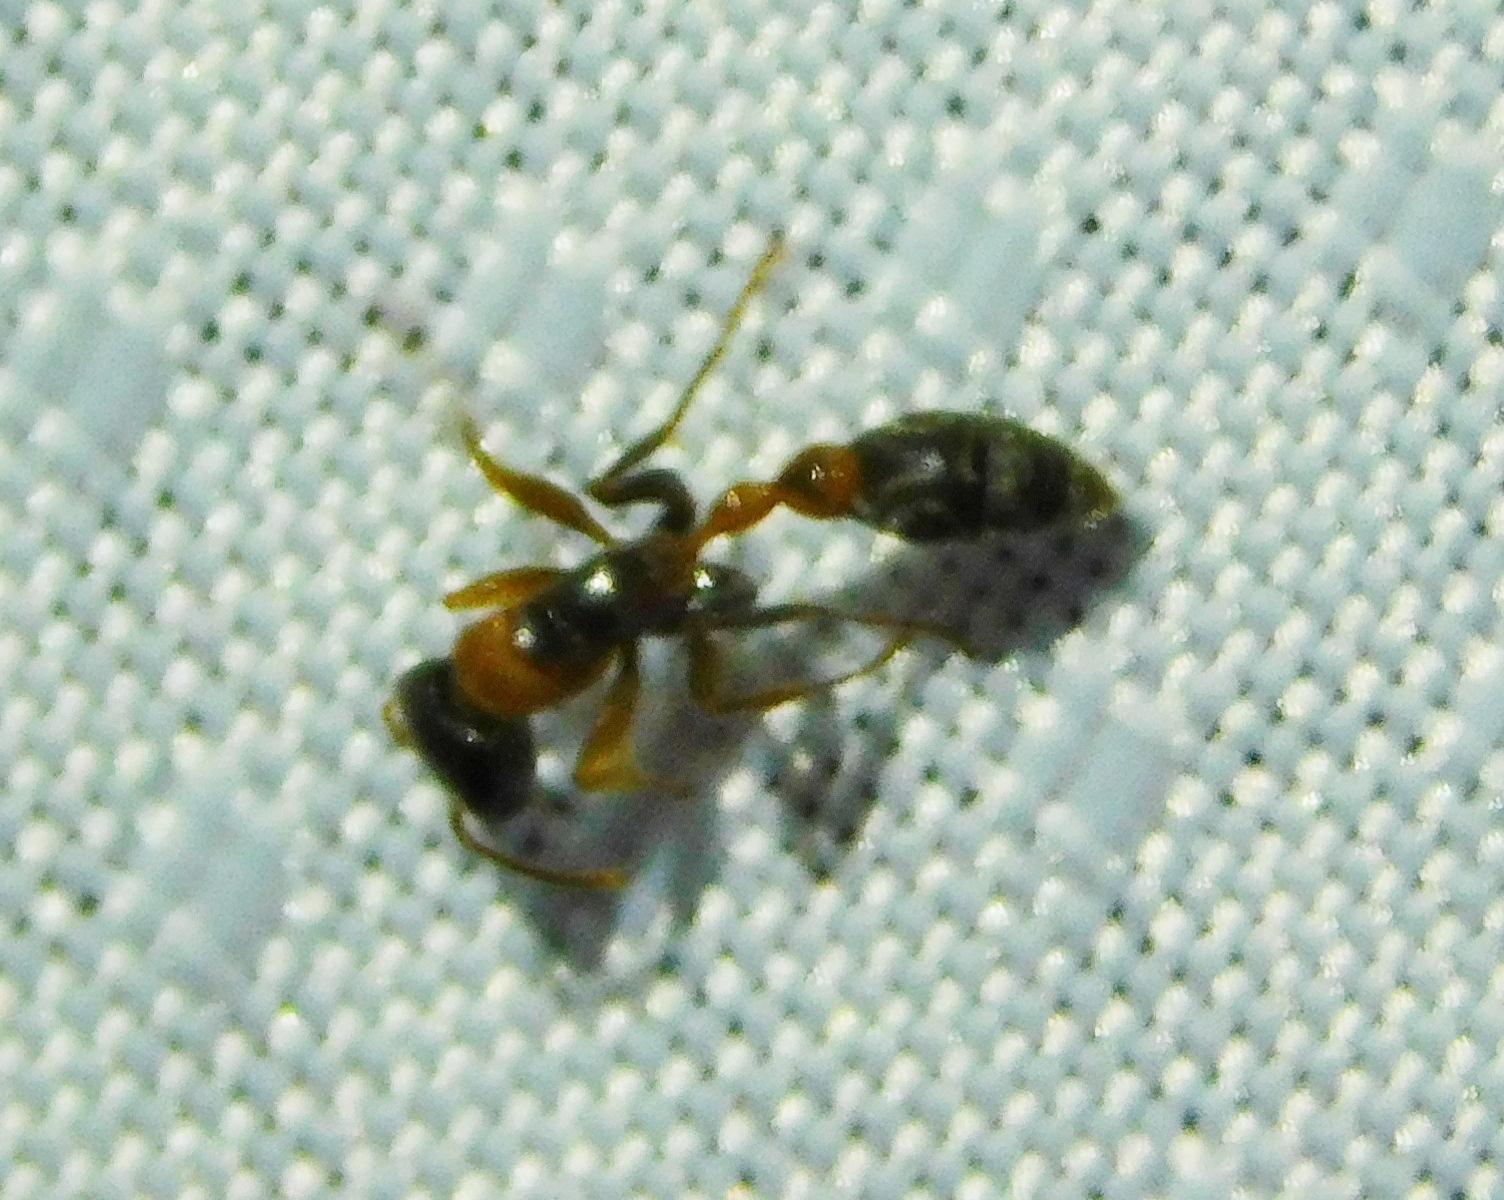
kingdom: Animalia
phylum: Arthropoda
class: Insecta
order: Hymenoptera
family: Formicidae
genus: Pseudomyrmex
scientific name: Pseudomyrmex gracilis
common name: Graceful twig ant
